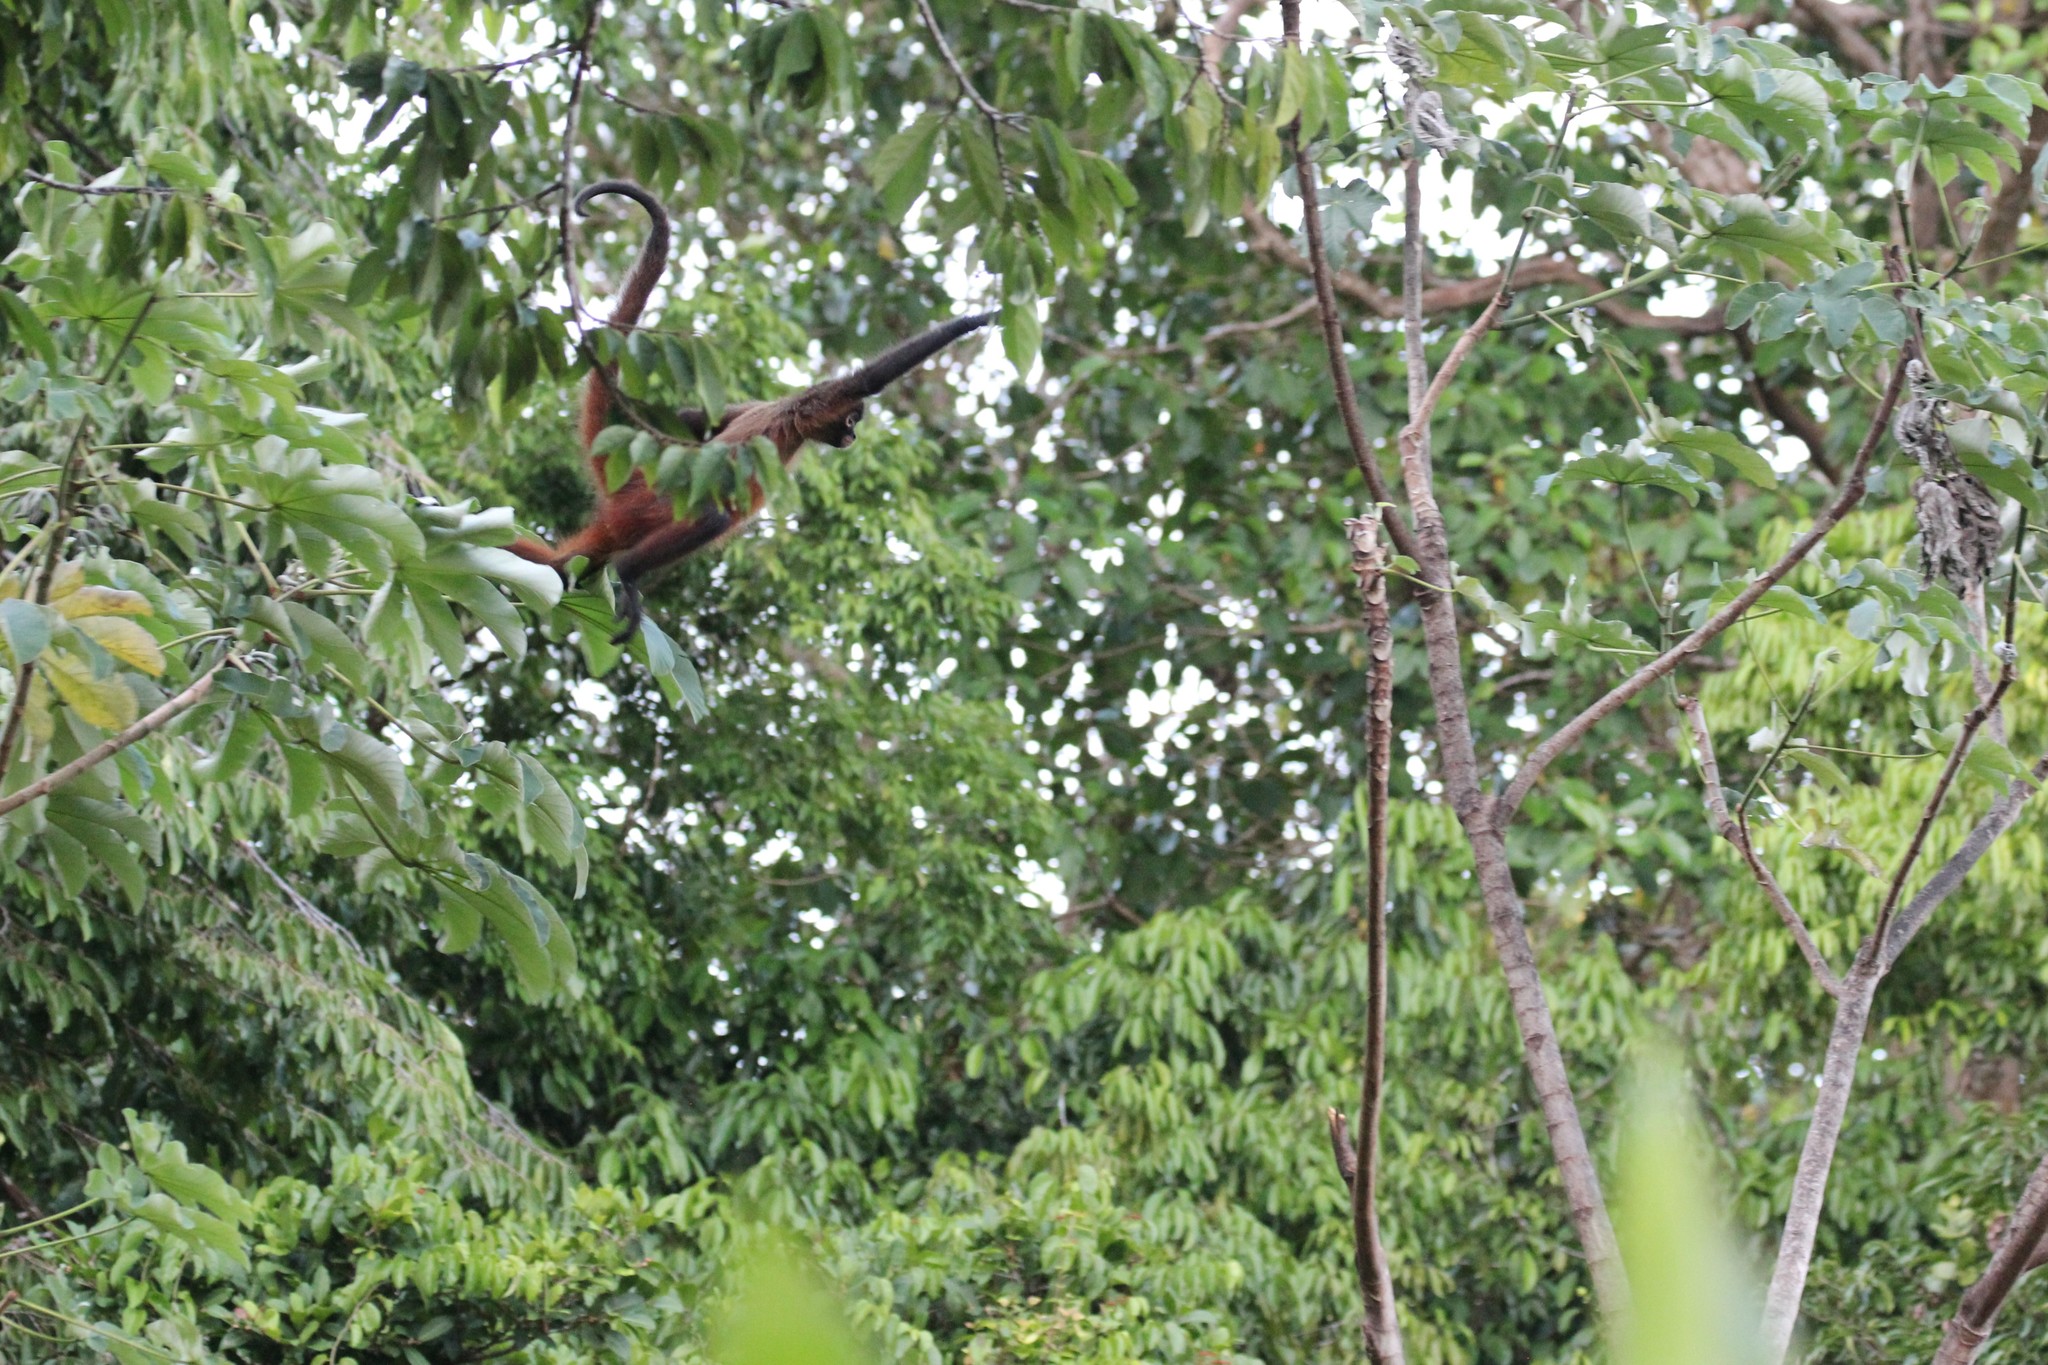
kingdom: Animalia
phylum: Chordata
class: Mammalia
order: Primates
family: Atelidae
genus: Ateles
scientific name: Ateles geoffroyi
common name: Black-handed spider monkey
